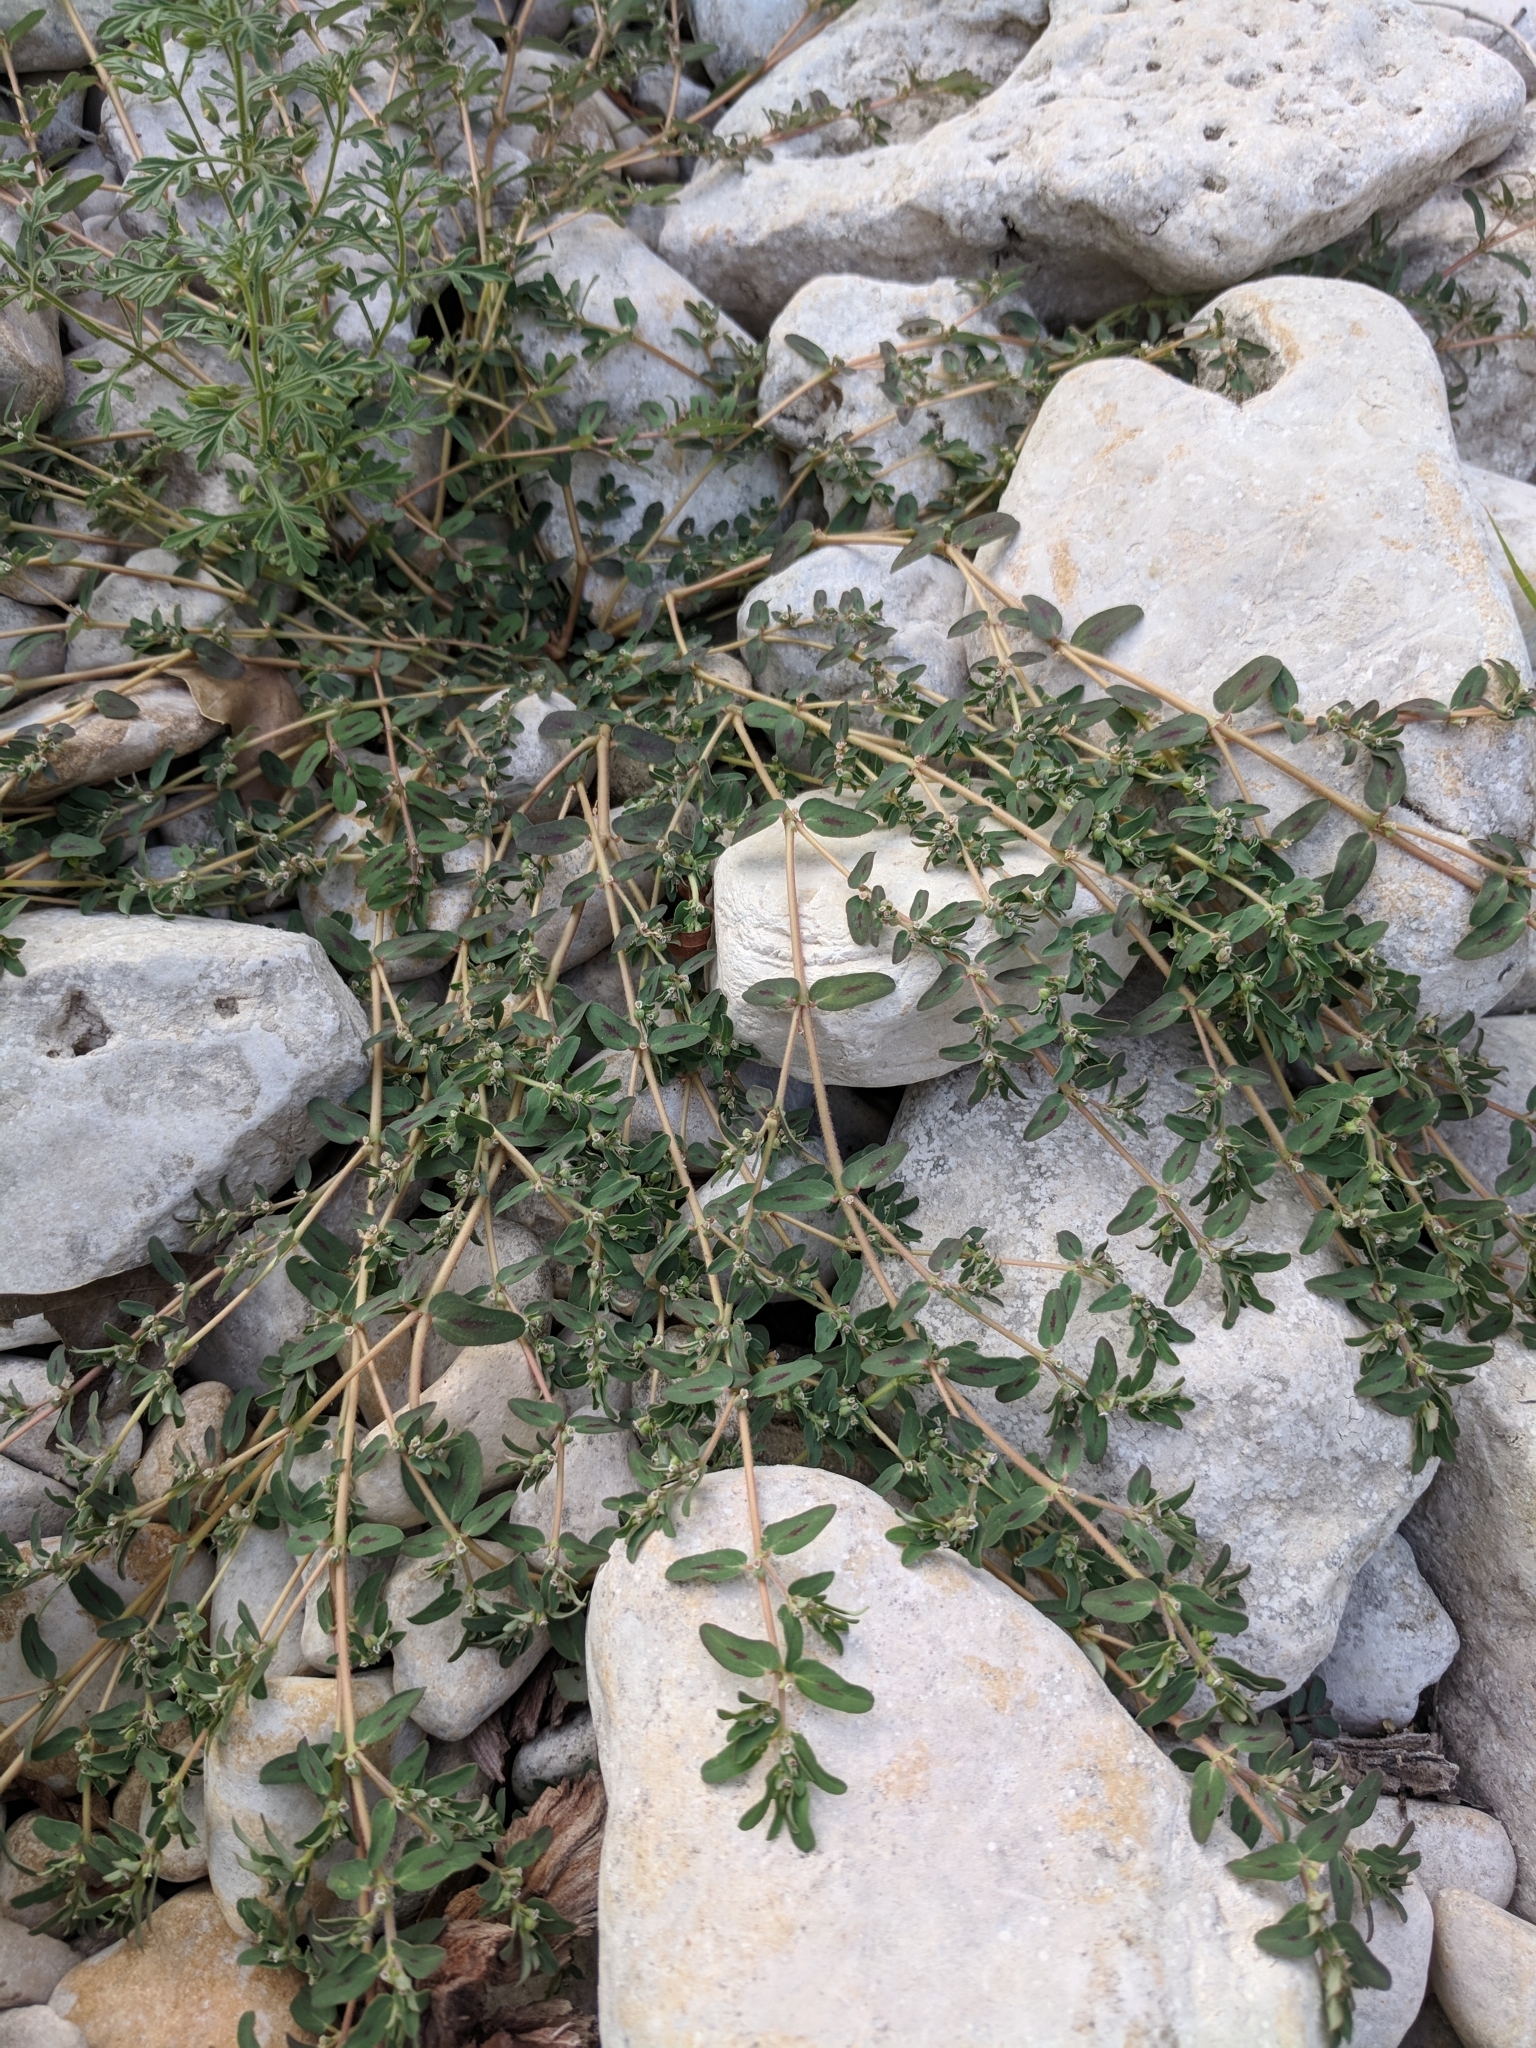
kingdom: Plantae
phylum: Tracheophyta
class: Magnoliopsida
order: Malpighiales
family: Euphorbiaceae
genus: Euphorbia
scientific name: Euphorbia maculata
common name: Spotted spurge
